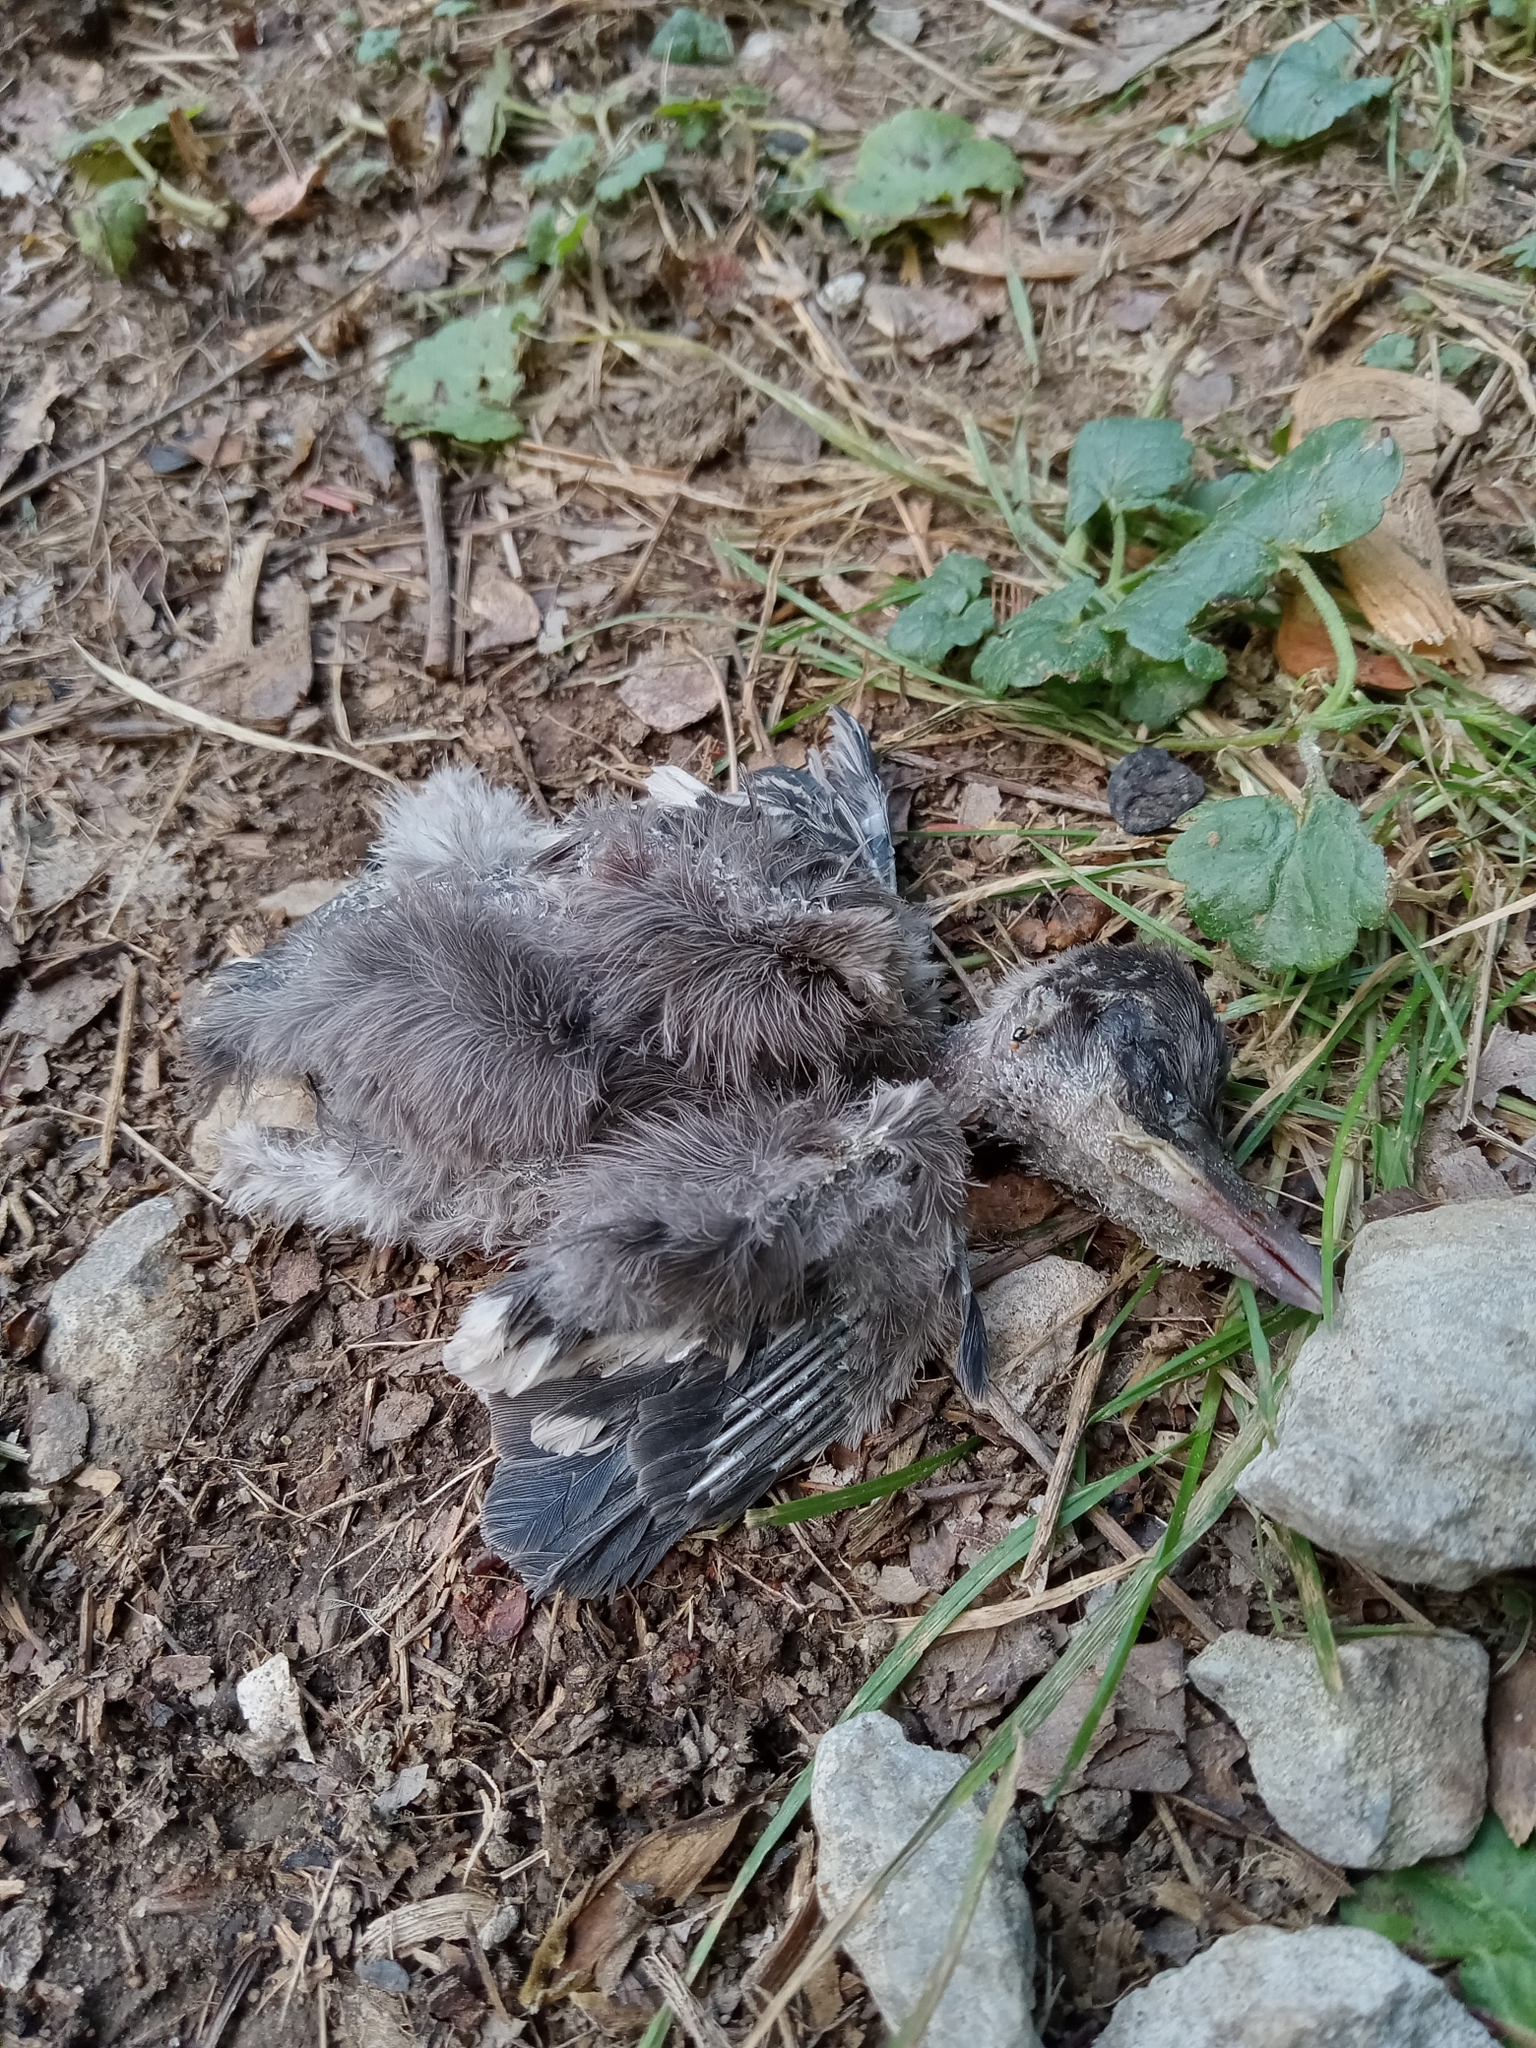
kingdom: Animalia
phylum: Chordata
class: Aves
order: Passeriformes
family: Corvidae
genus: Cyanocitta
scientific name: Cyanocitta cristata
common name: Blue jay
